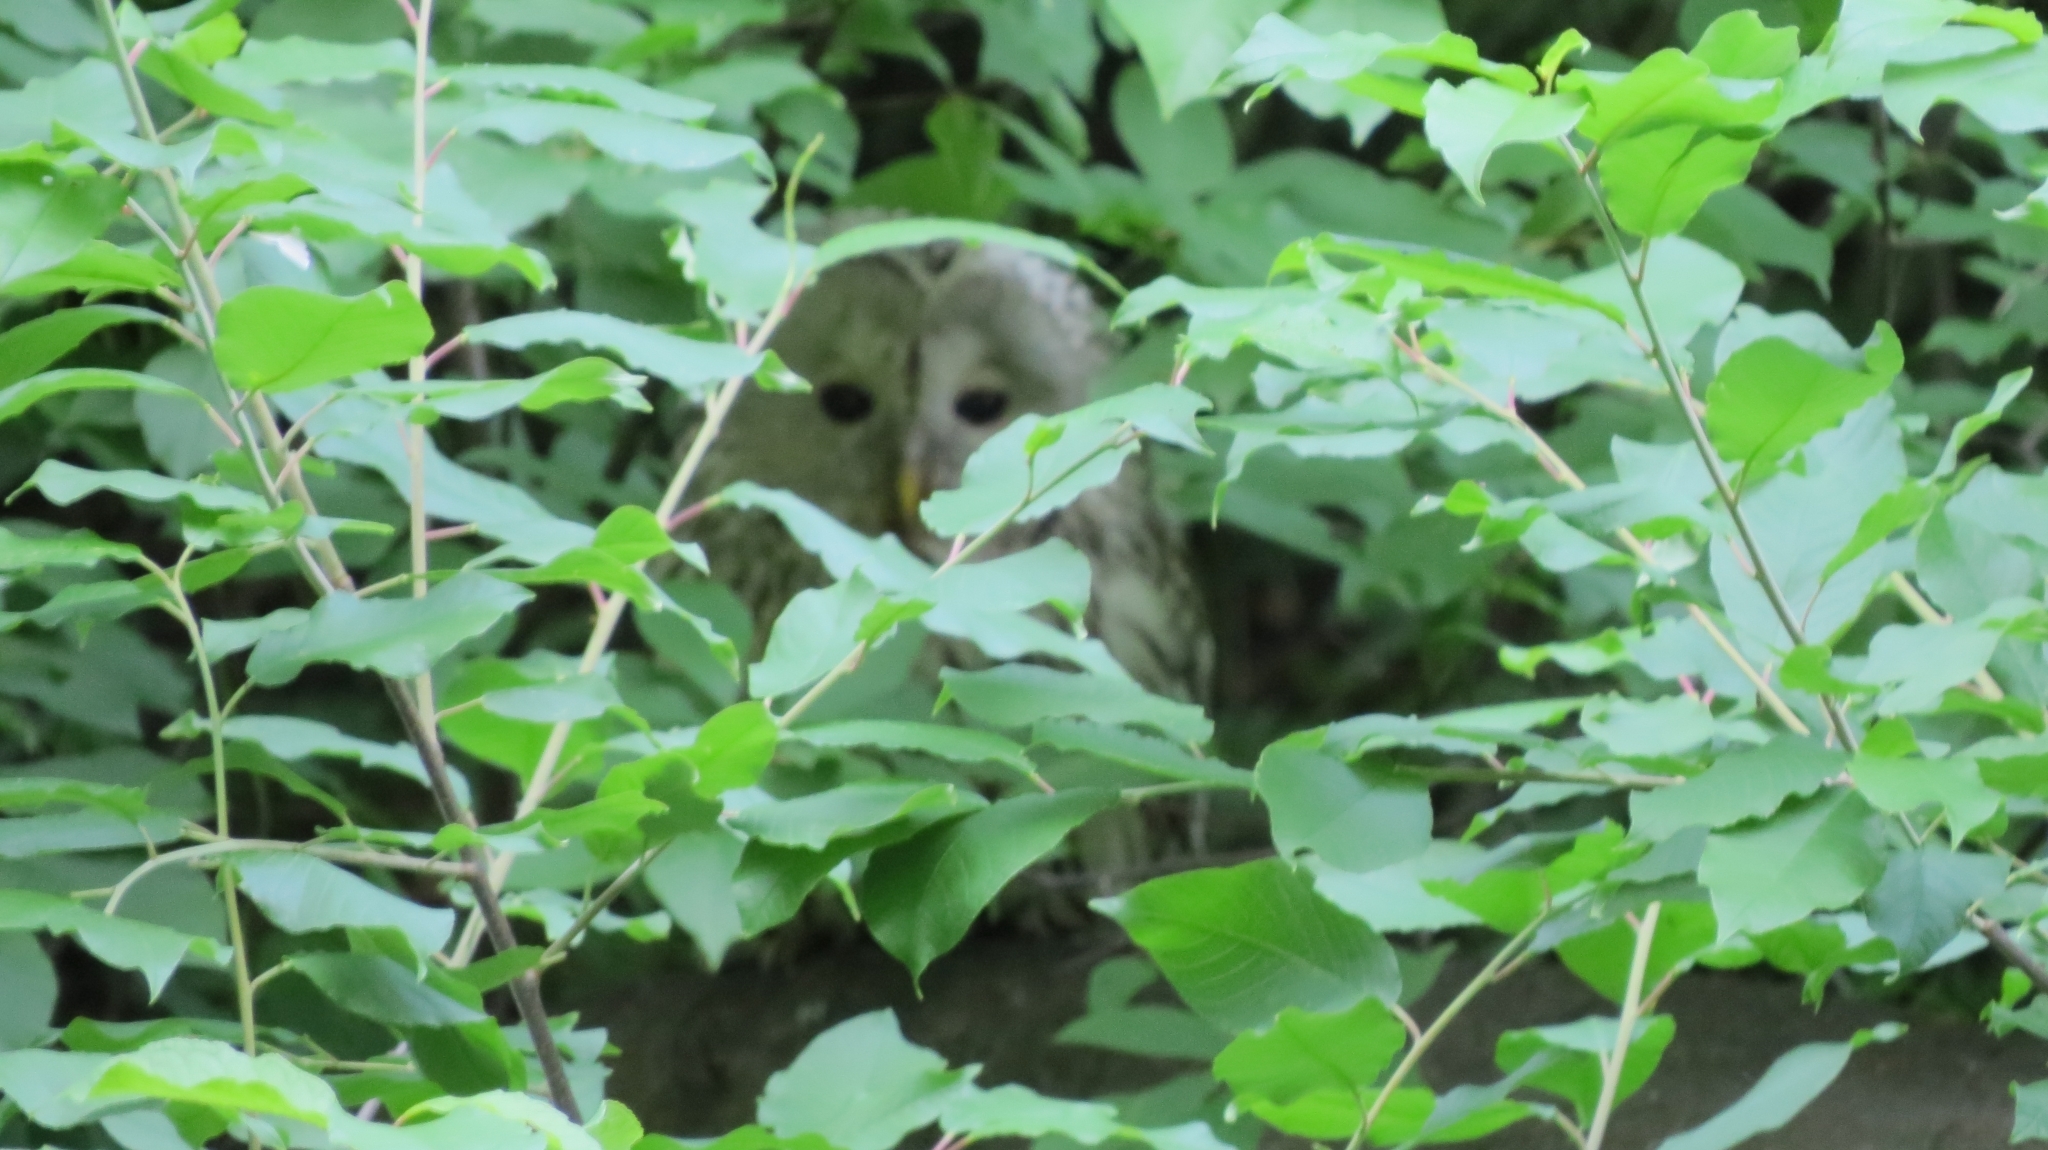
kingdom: Animalia
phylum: Chordata
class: Aves
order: Strigiformes
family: Strigidae
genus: Strix
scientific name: Strix uralensis
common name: Ural owl
